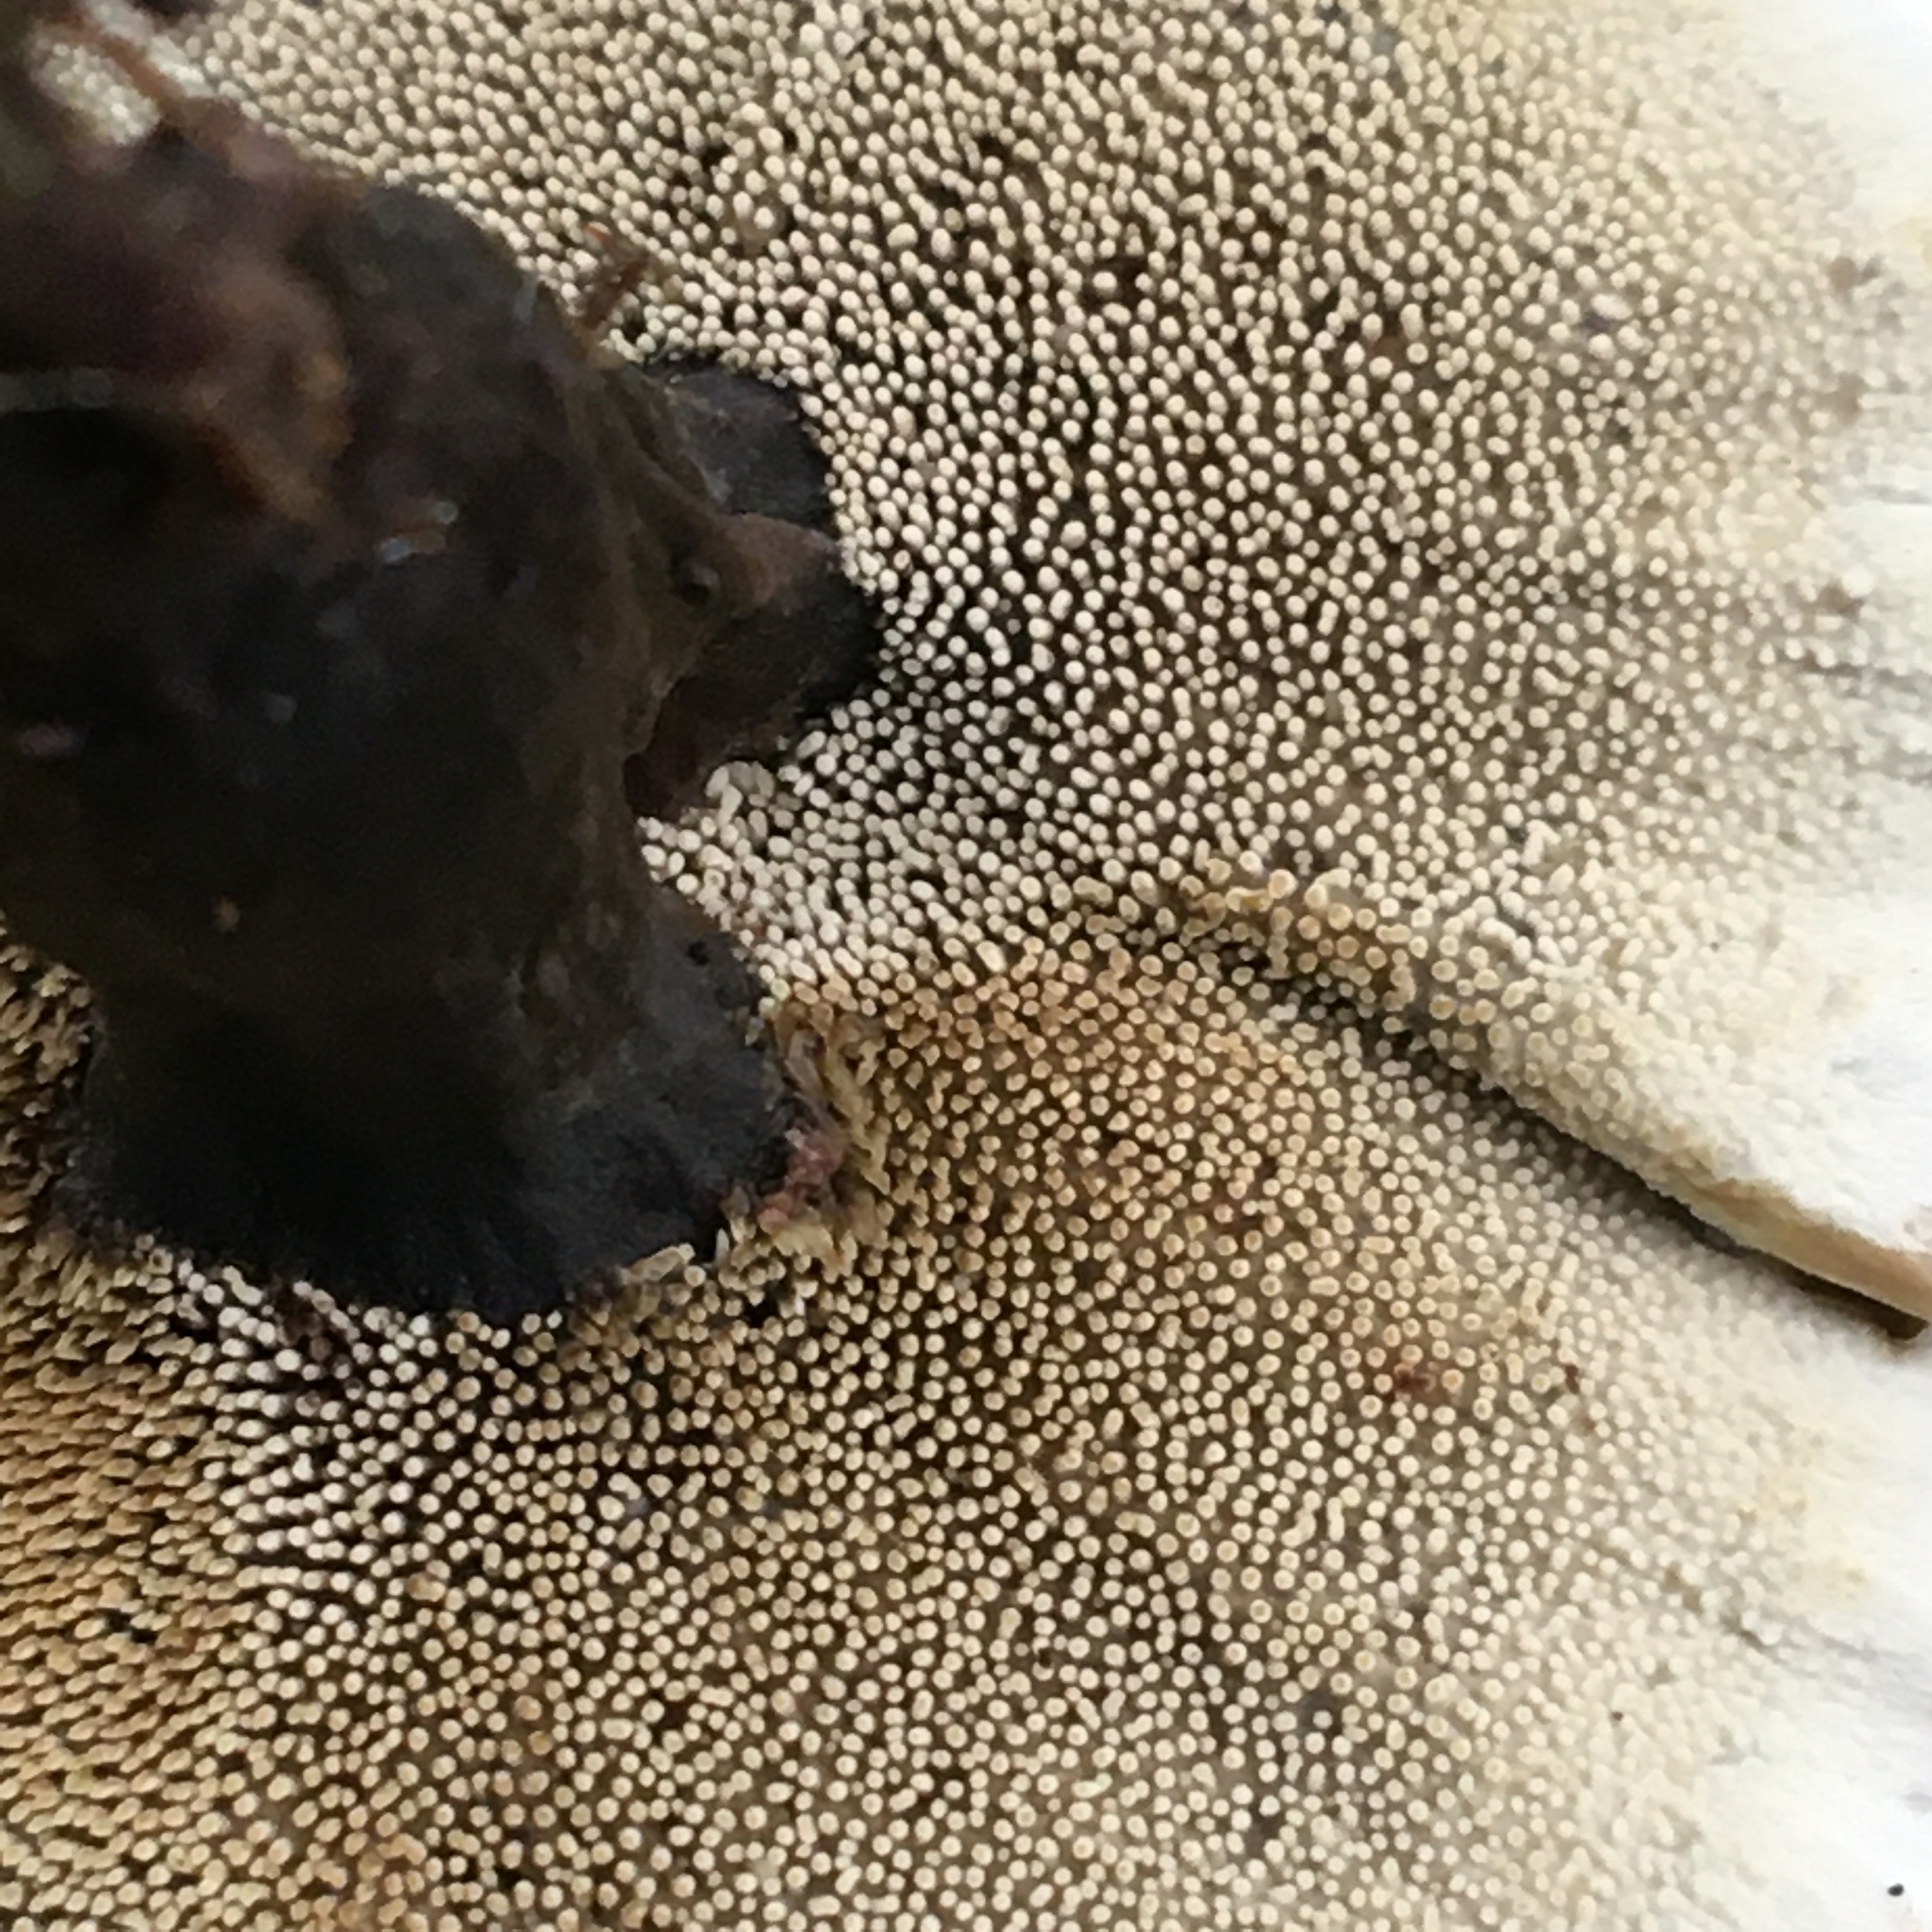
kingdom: Fungi
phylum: Basidiomycota
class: Agaricomycetes
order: Thelephorales
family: Thelephoraceae
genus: Phellodon
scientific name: Phellodon niger
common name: Black tooth
